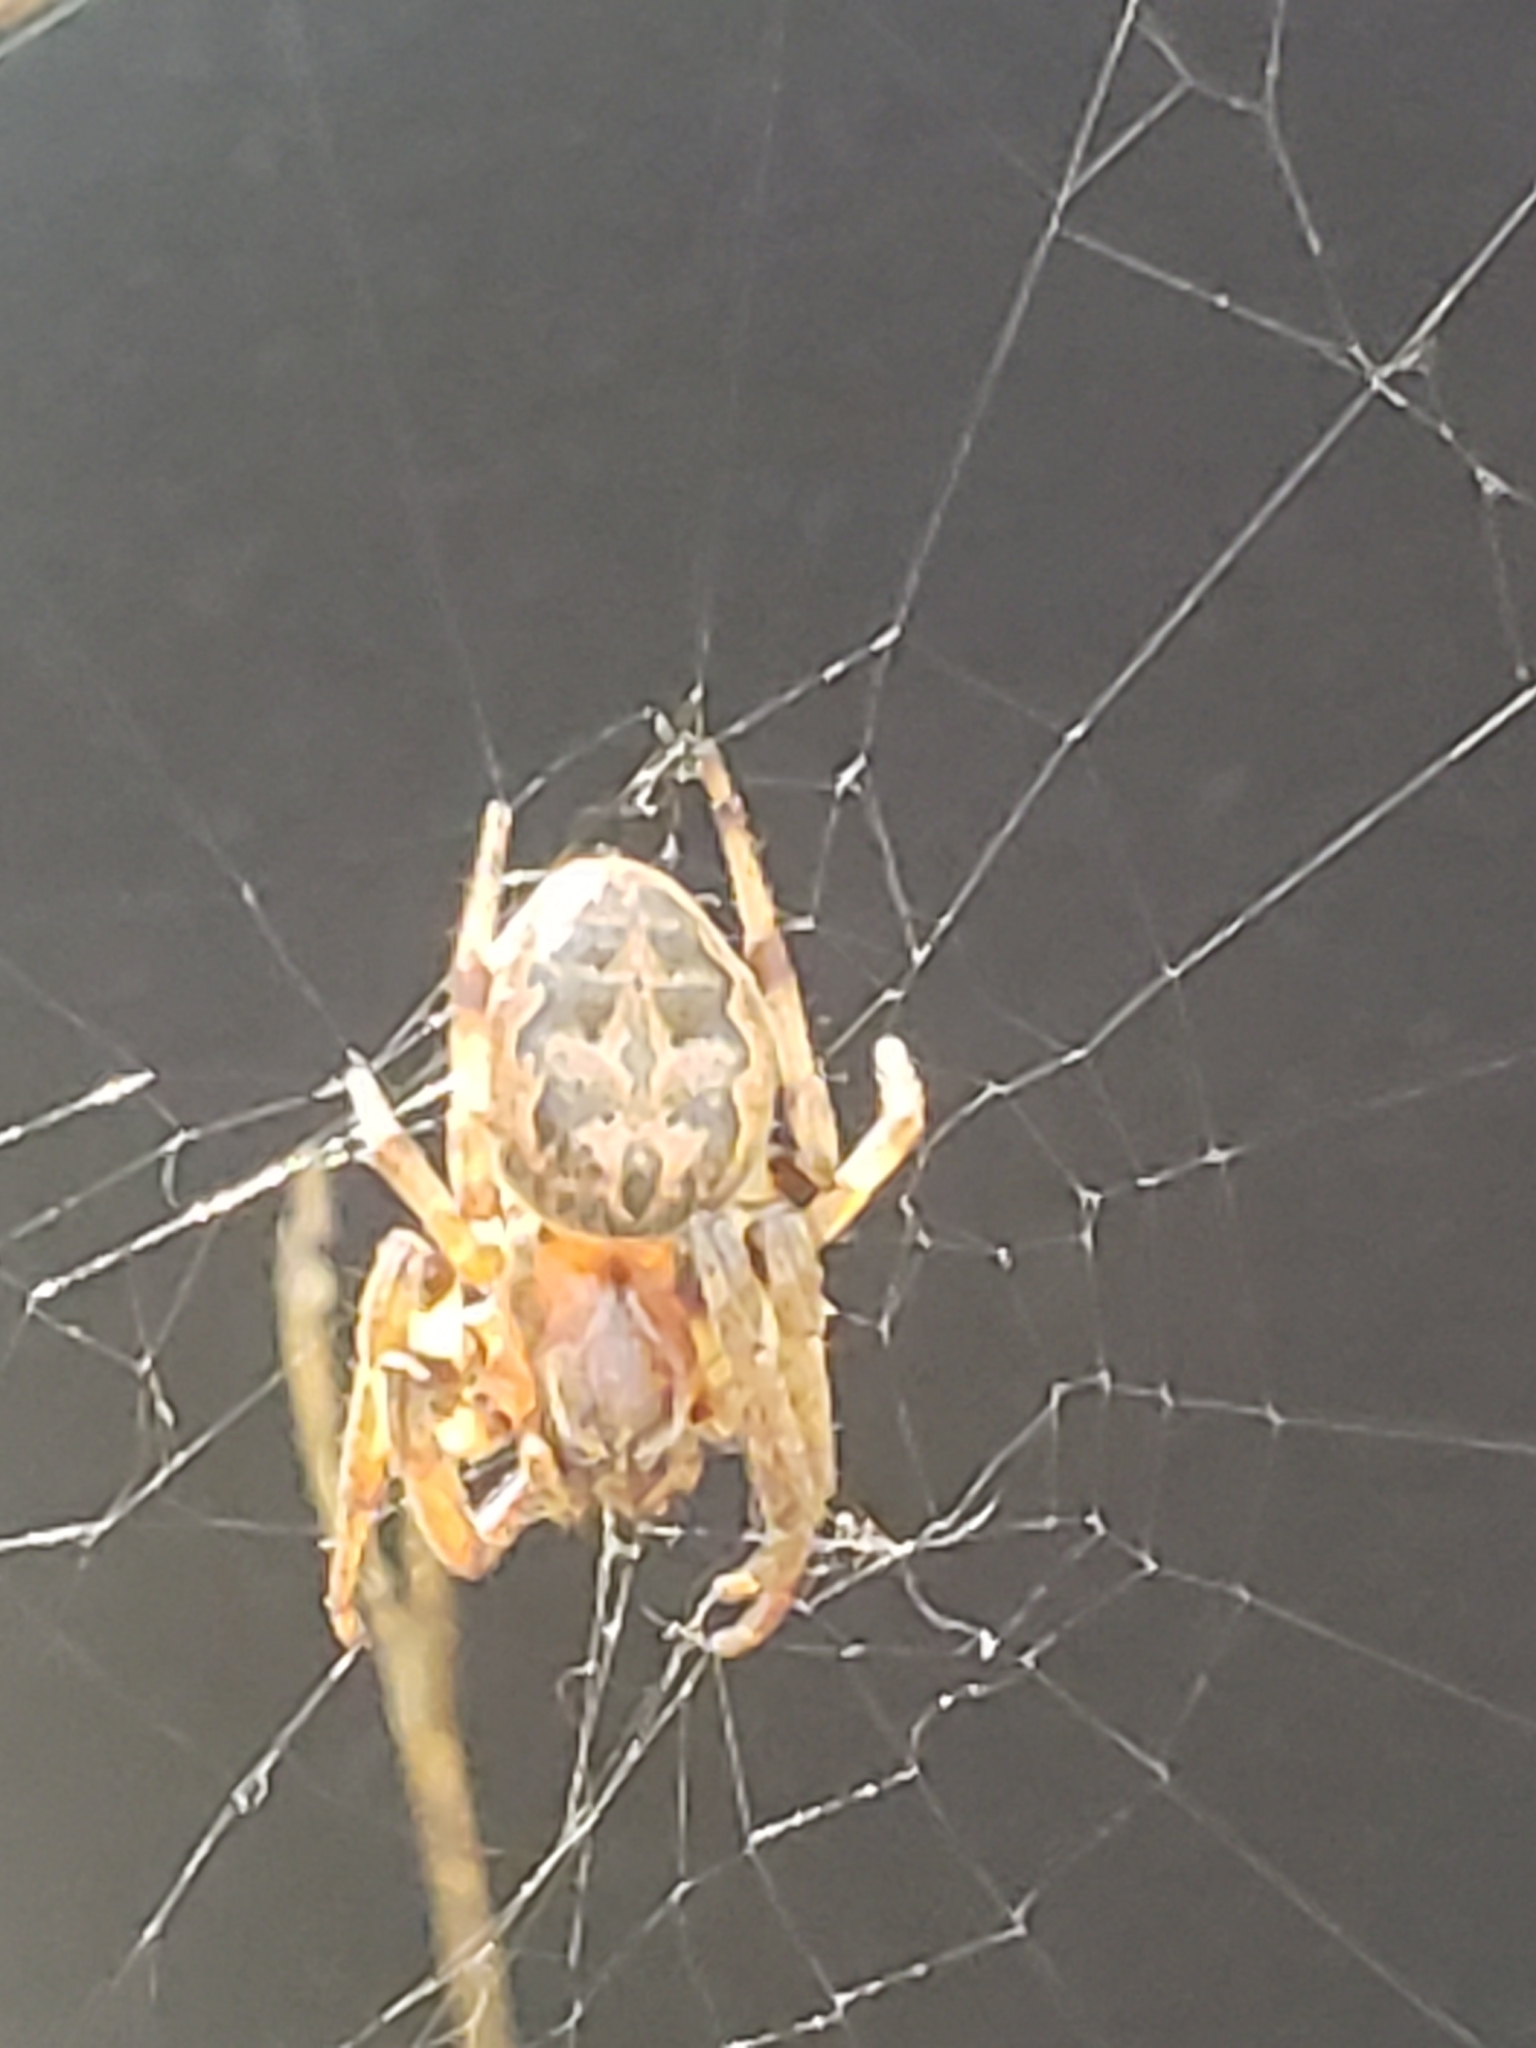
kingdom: Animalia
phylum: Arthropoda
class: Arachnida
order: Araneae
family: Araneidae
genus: Larinioides
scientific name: Larinioides cornutus
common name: Furrow orbweaver
